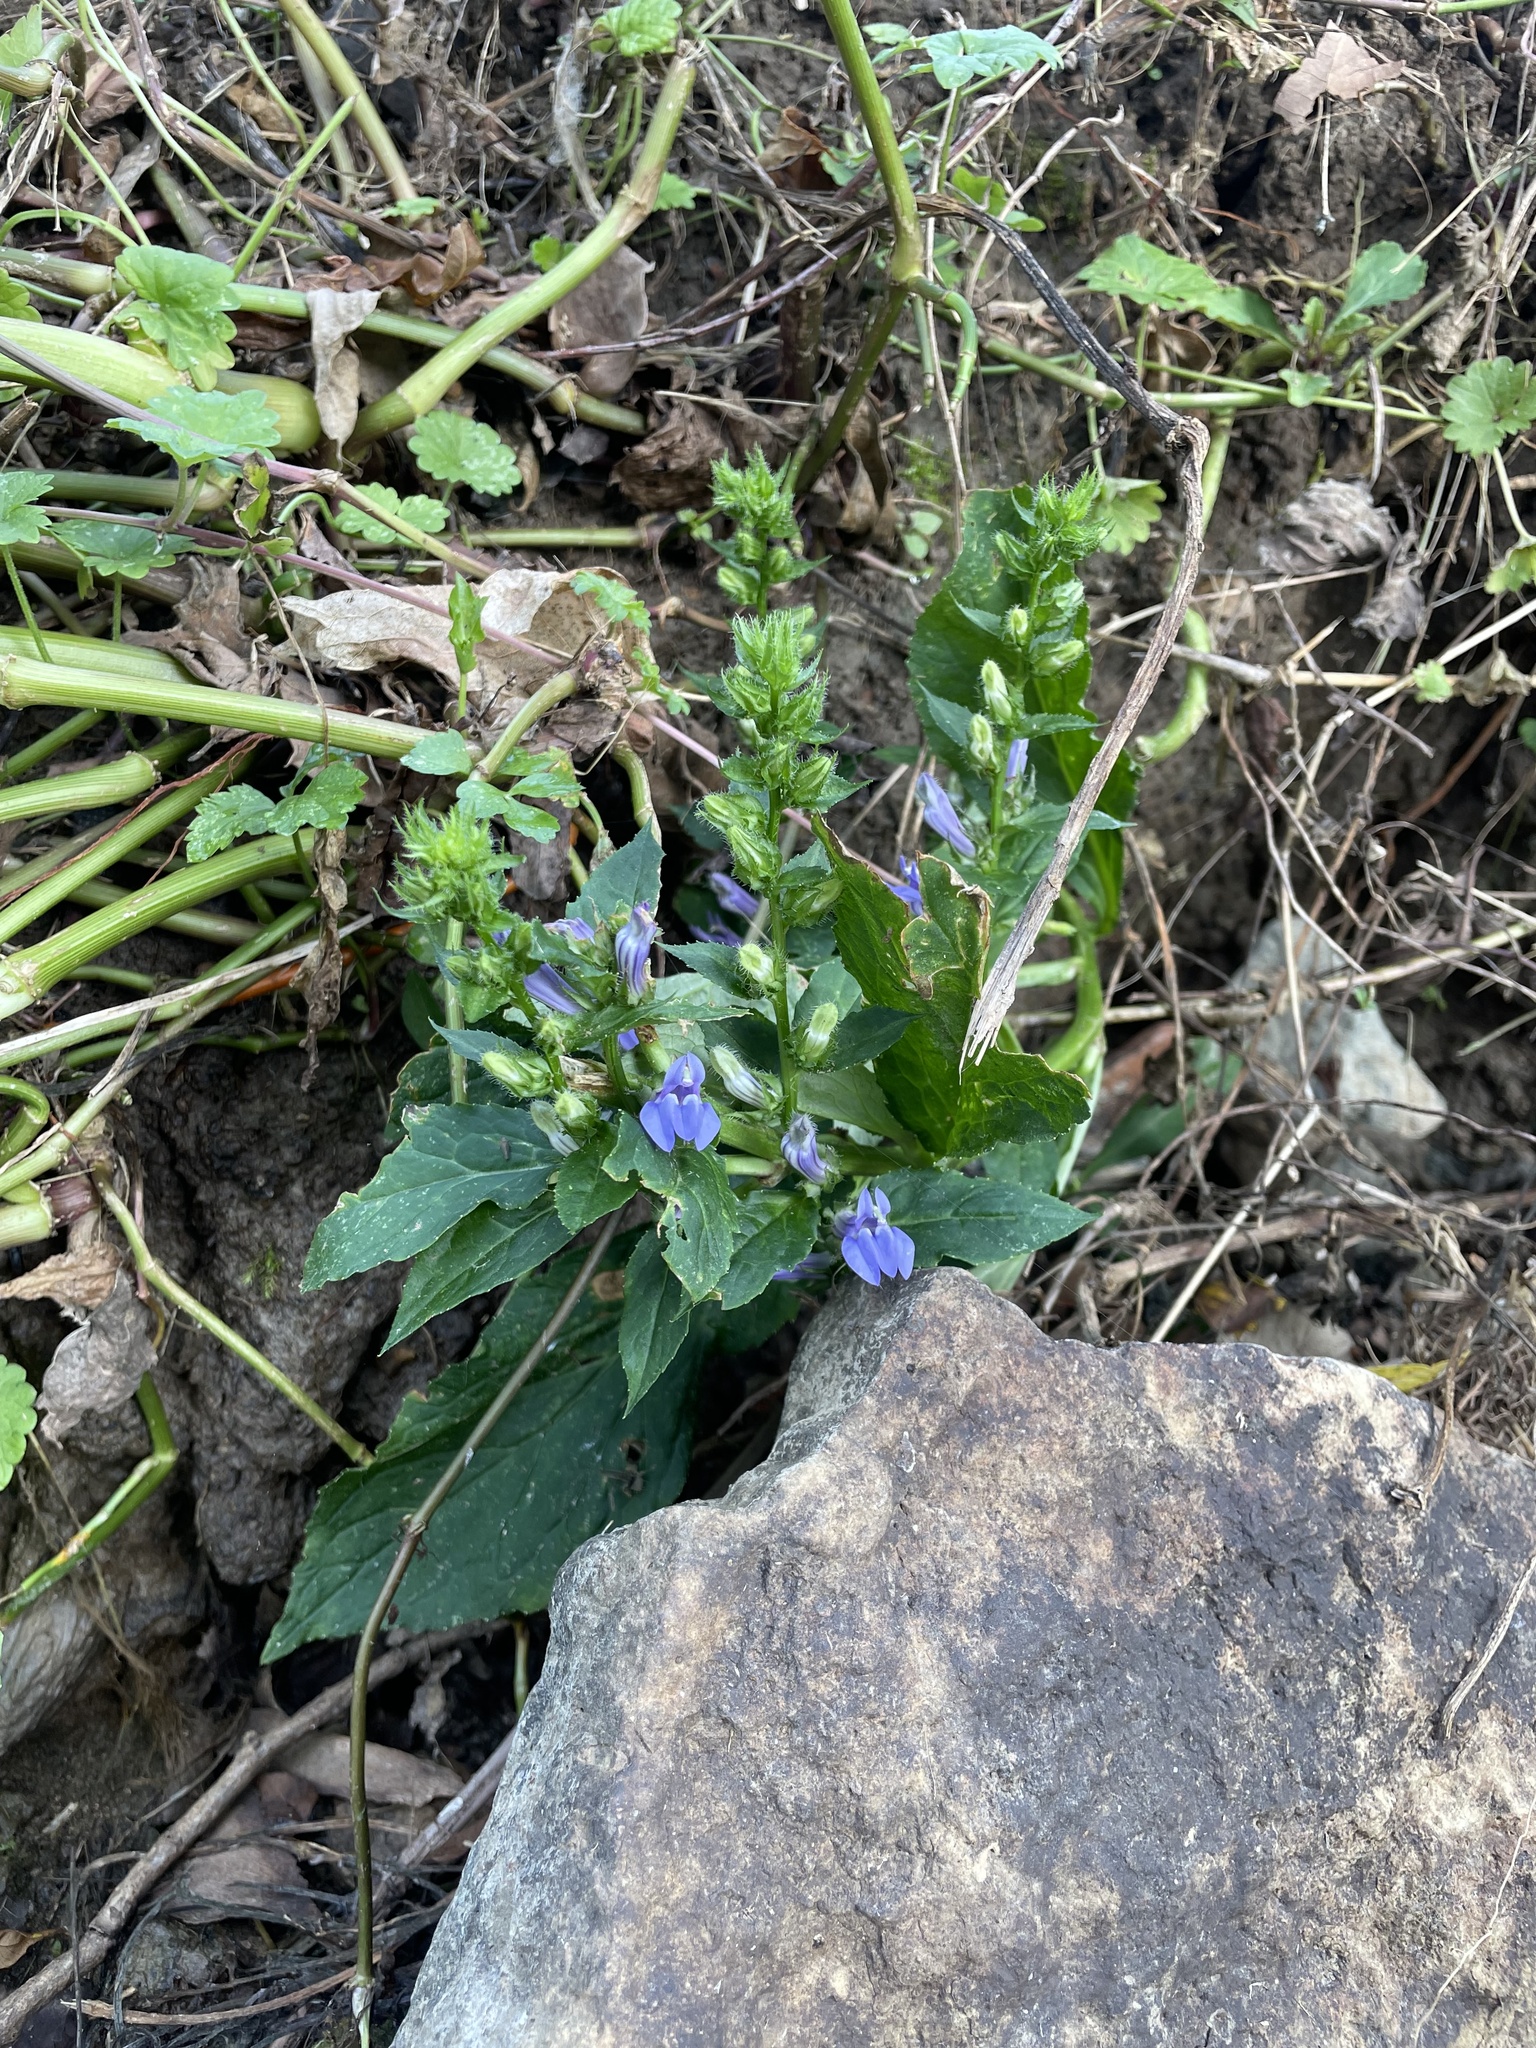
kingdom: Plantae
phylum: Tracheophyta
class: Magnoliopsida
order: Asterales
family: Campanulaceae
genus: Lobelia
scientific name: Lobelia siphilitica
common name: Great lobelia
